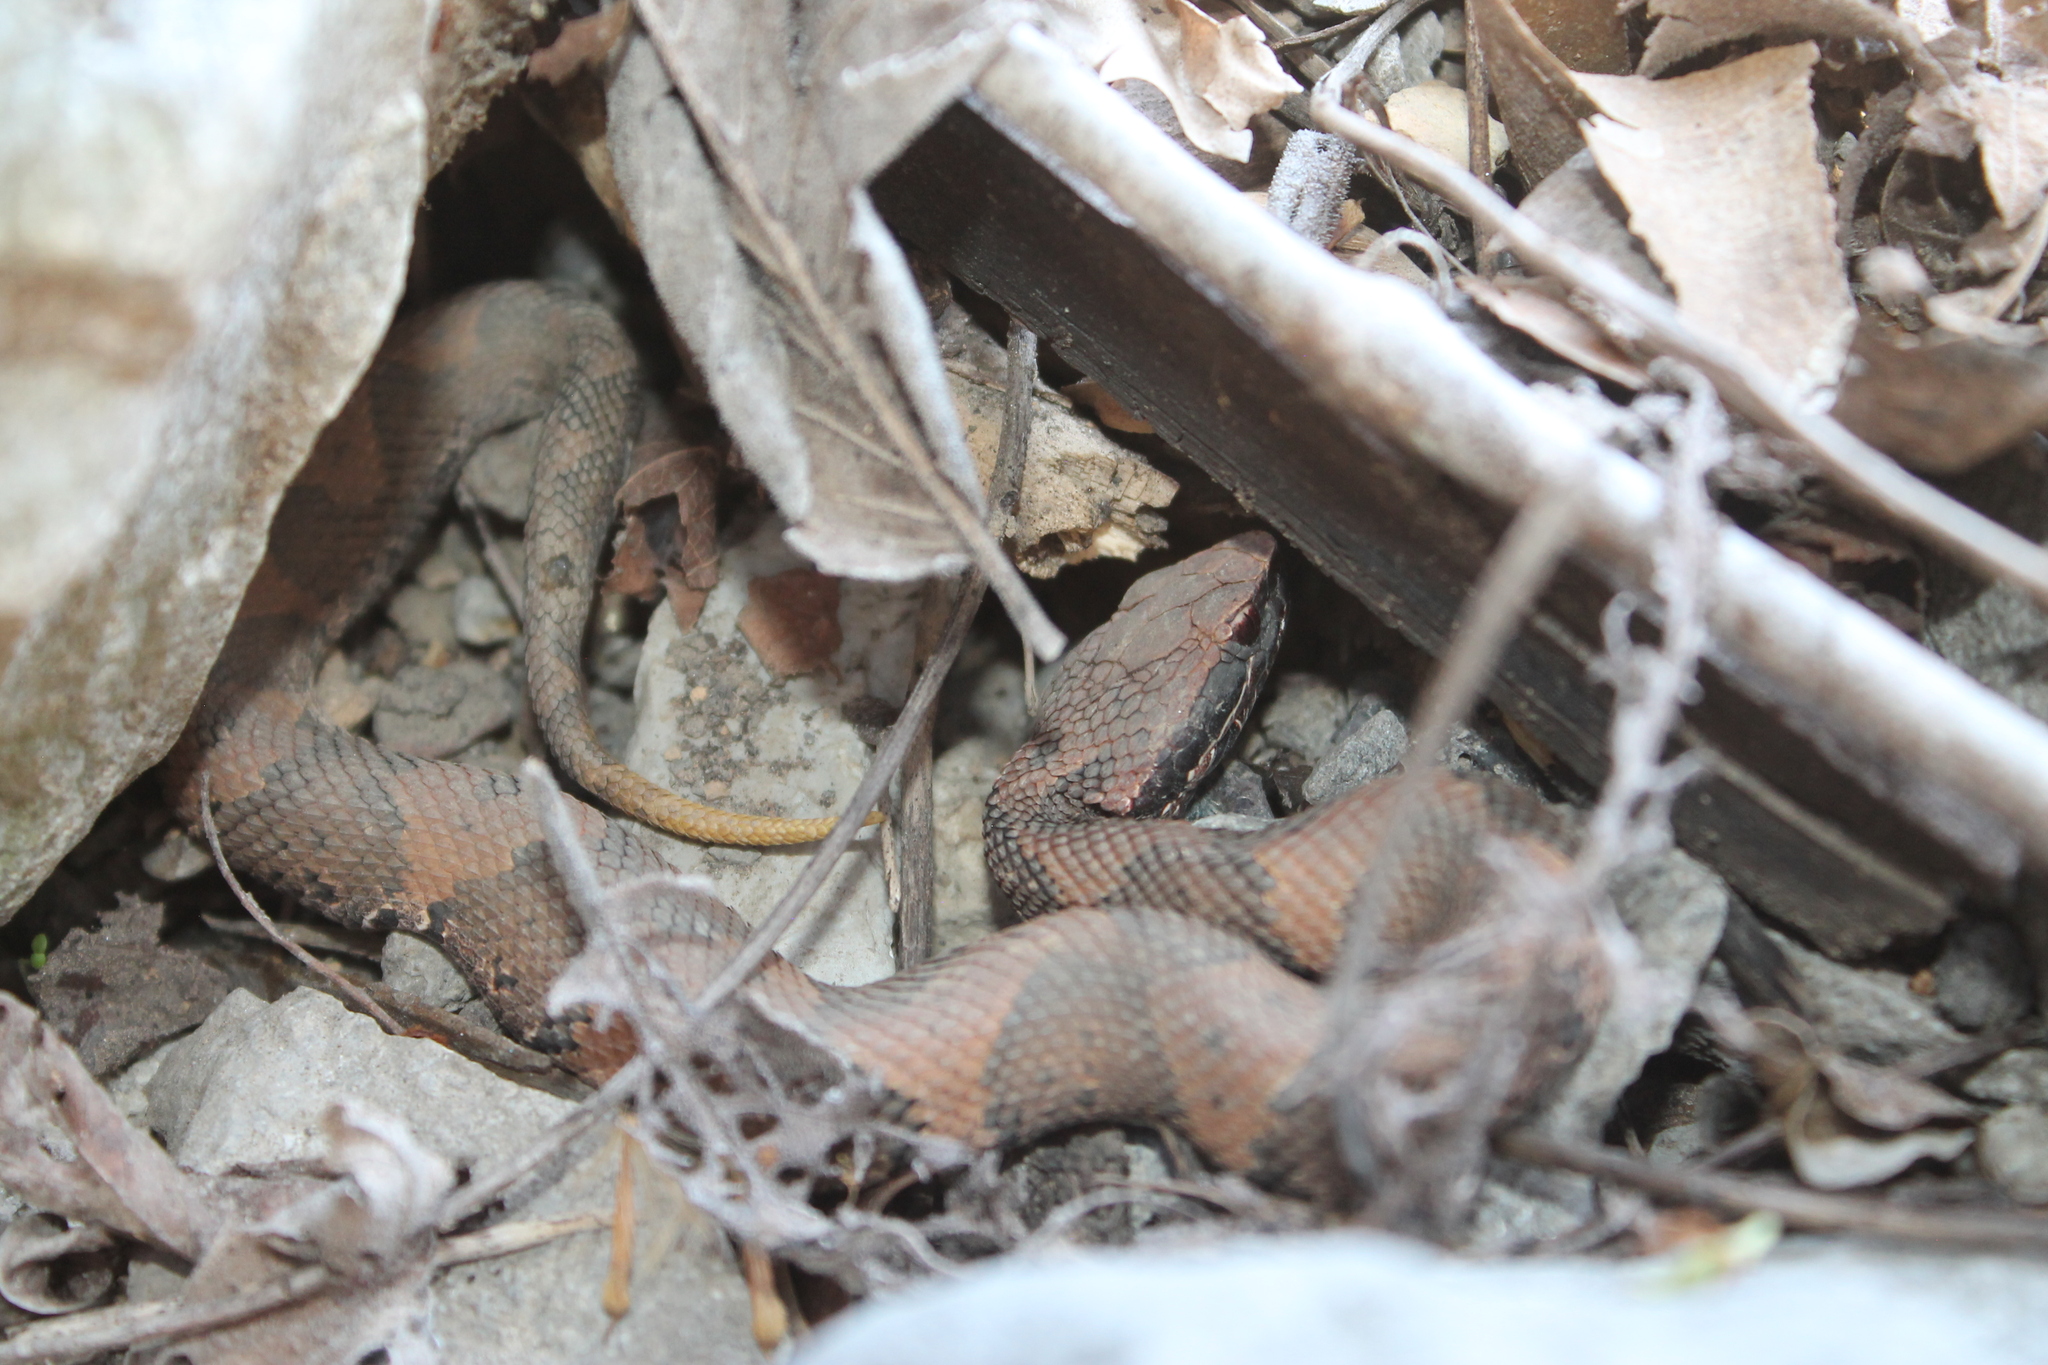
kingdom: Animalia
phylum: Chordata
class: Squamata
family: Viperidae
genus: Agkistrodon
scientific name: Agkistrodon piscivorus
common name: Cottonmouth
